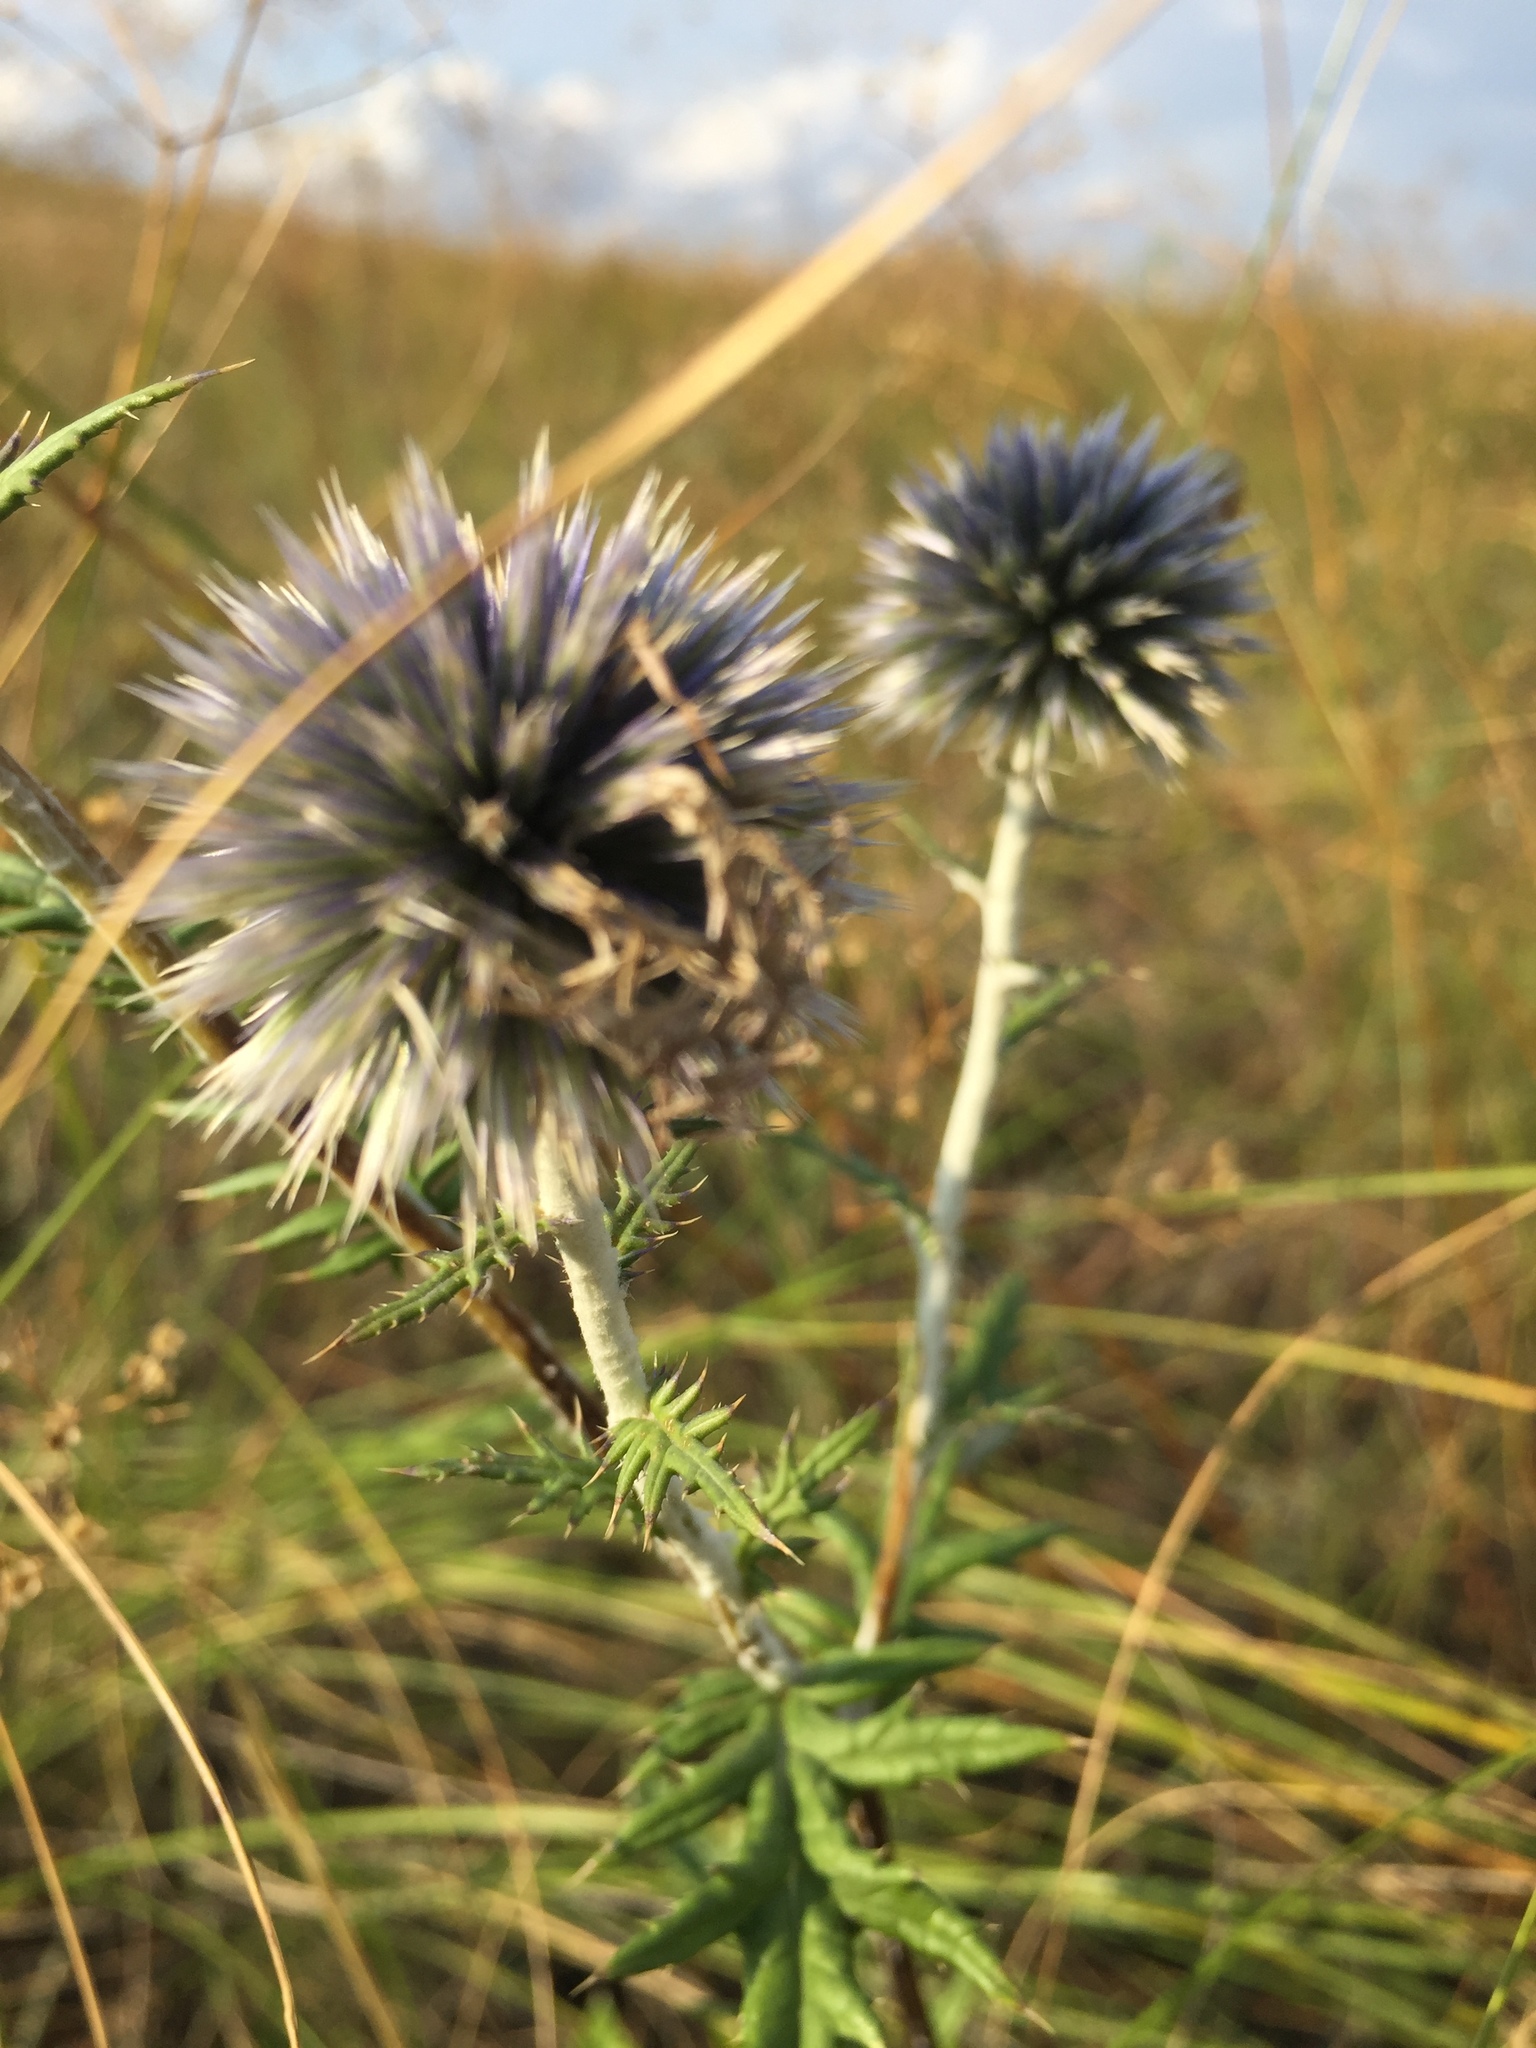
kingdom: Plantae
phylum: Tracheophyta
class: Magnoliopsida
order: Asterales
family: Asteraceae
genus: Echinops
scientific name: Echinops sphaerocephalus
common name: Glandular globe-thistle
